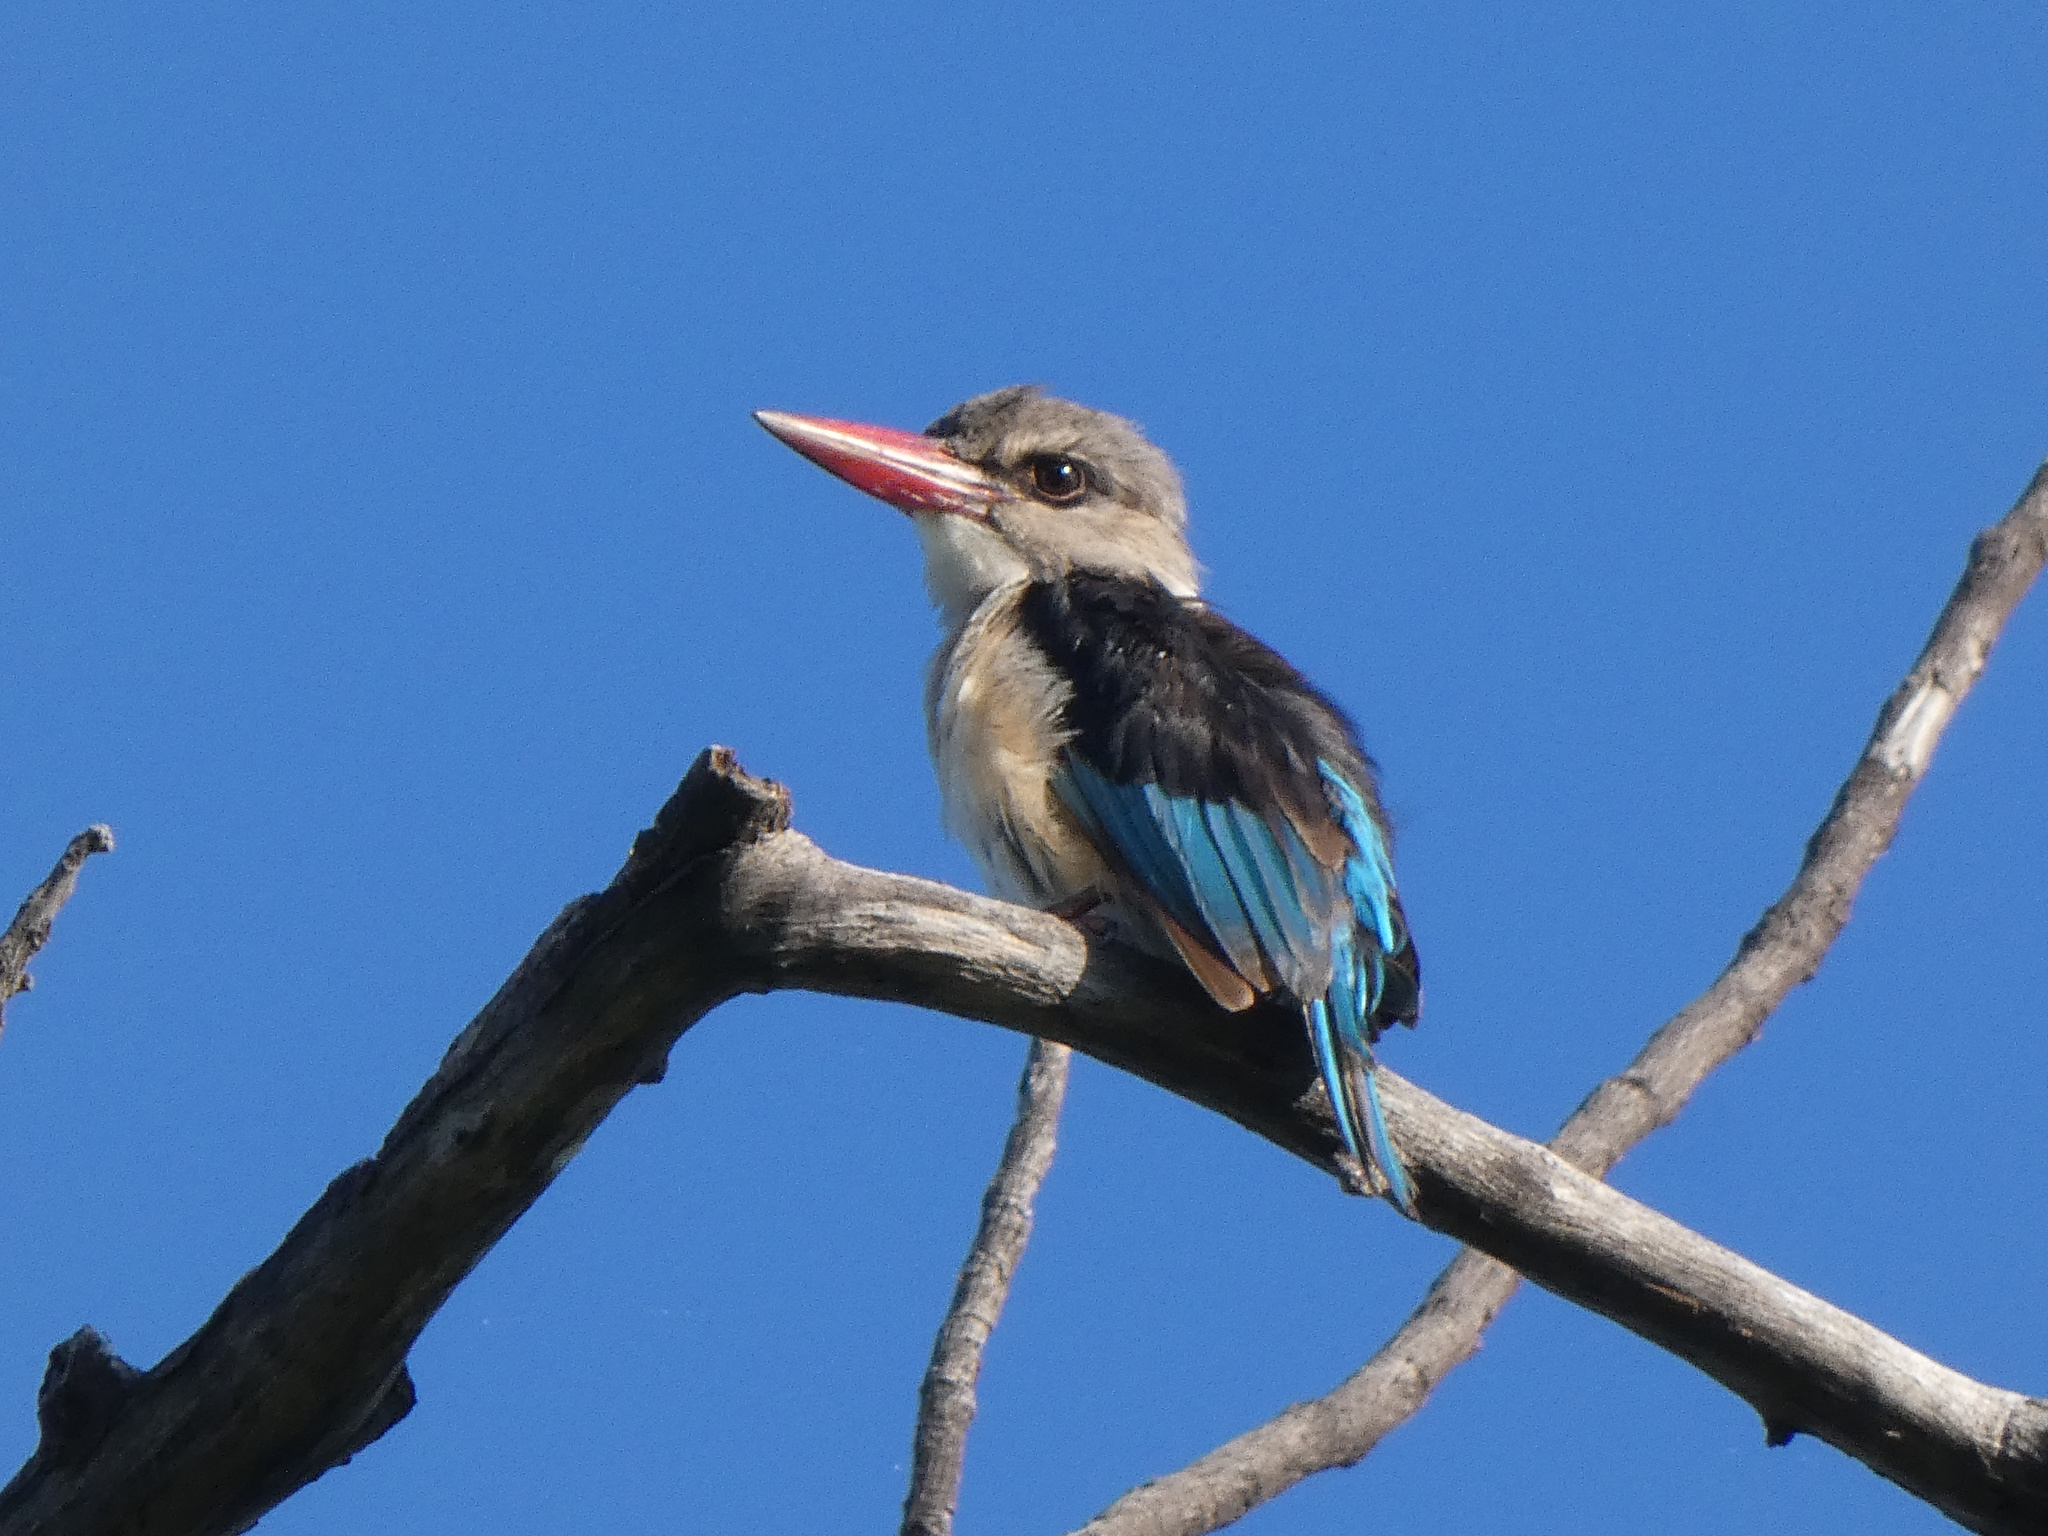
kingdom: Animalia
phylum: Chordata
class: Aves
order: Coraciiformes
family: Alcedinidae
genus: Halcyon
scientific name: Halcyon albiventris
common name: Brown-hooded kingfisher
